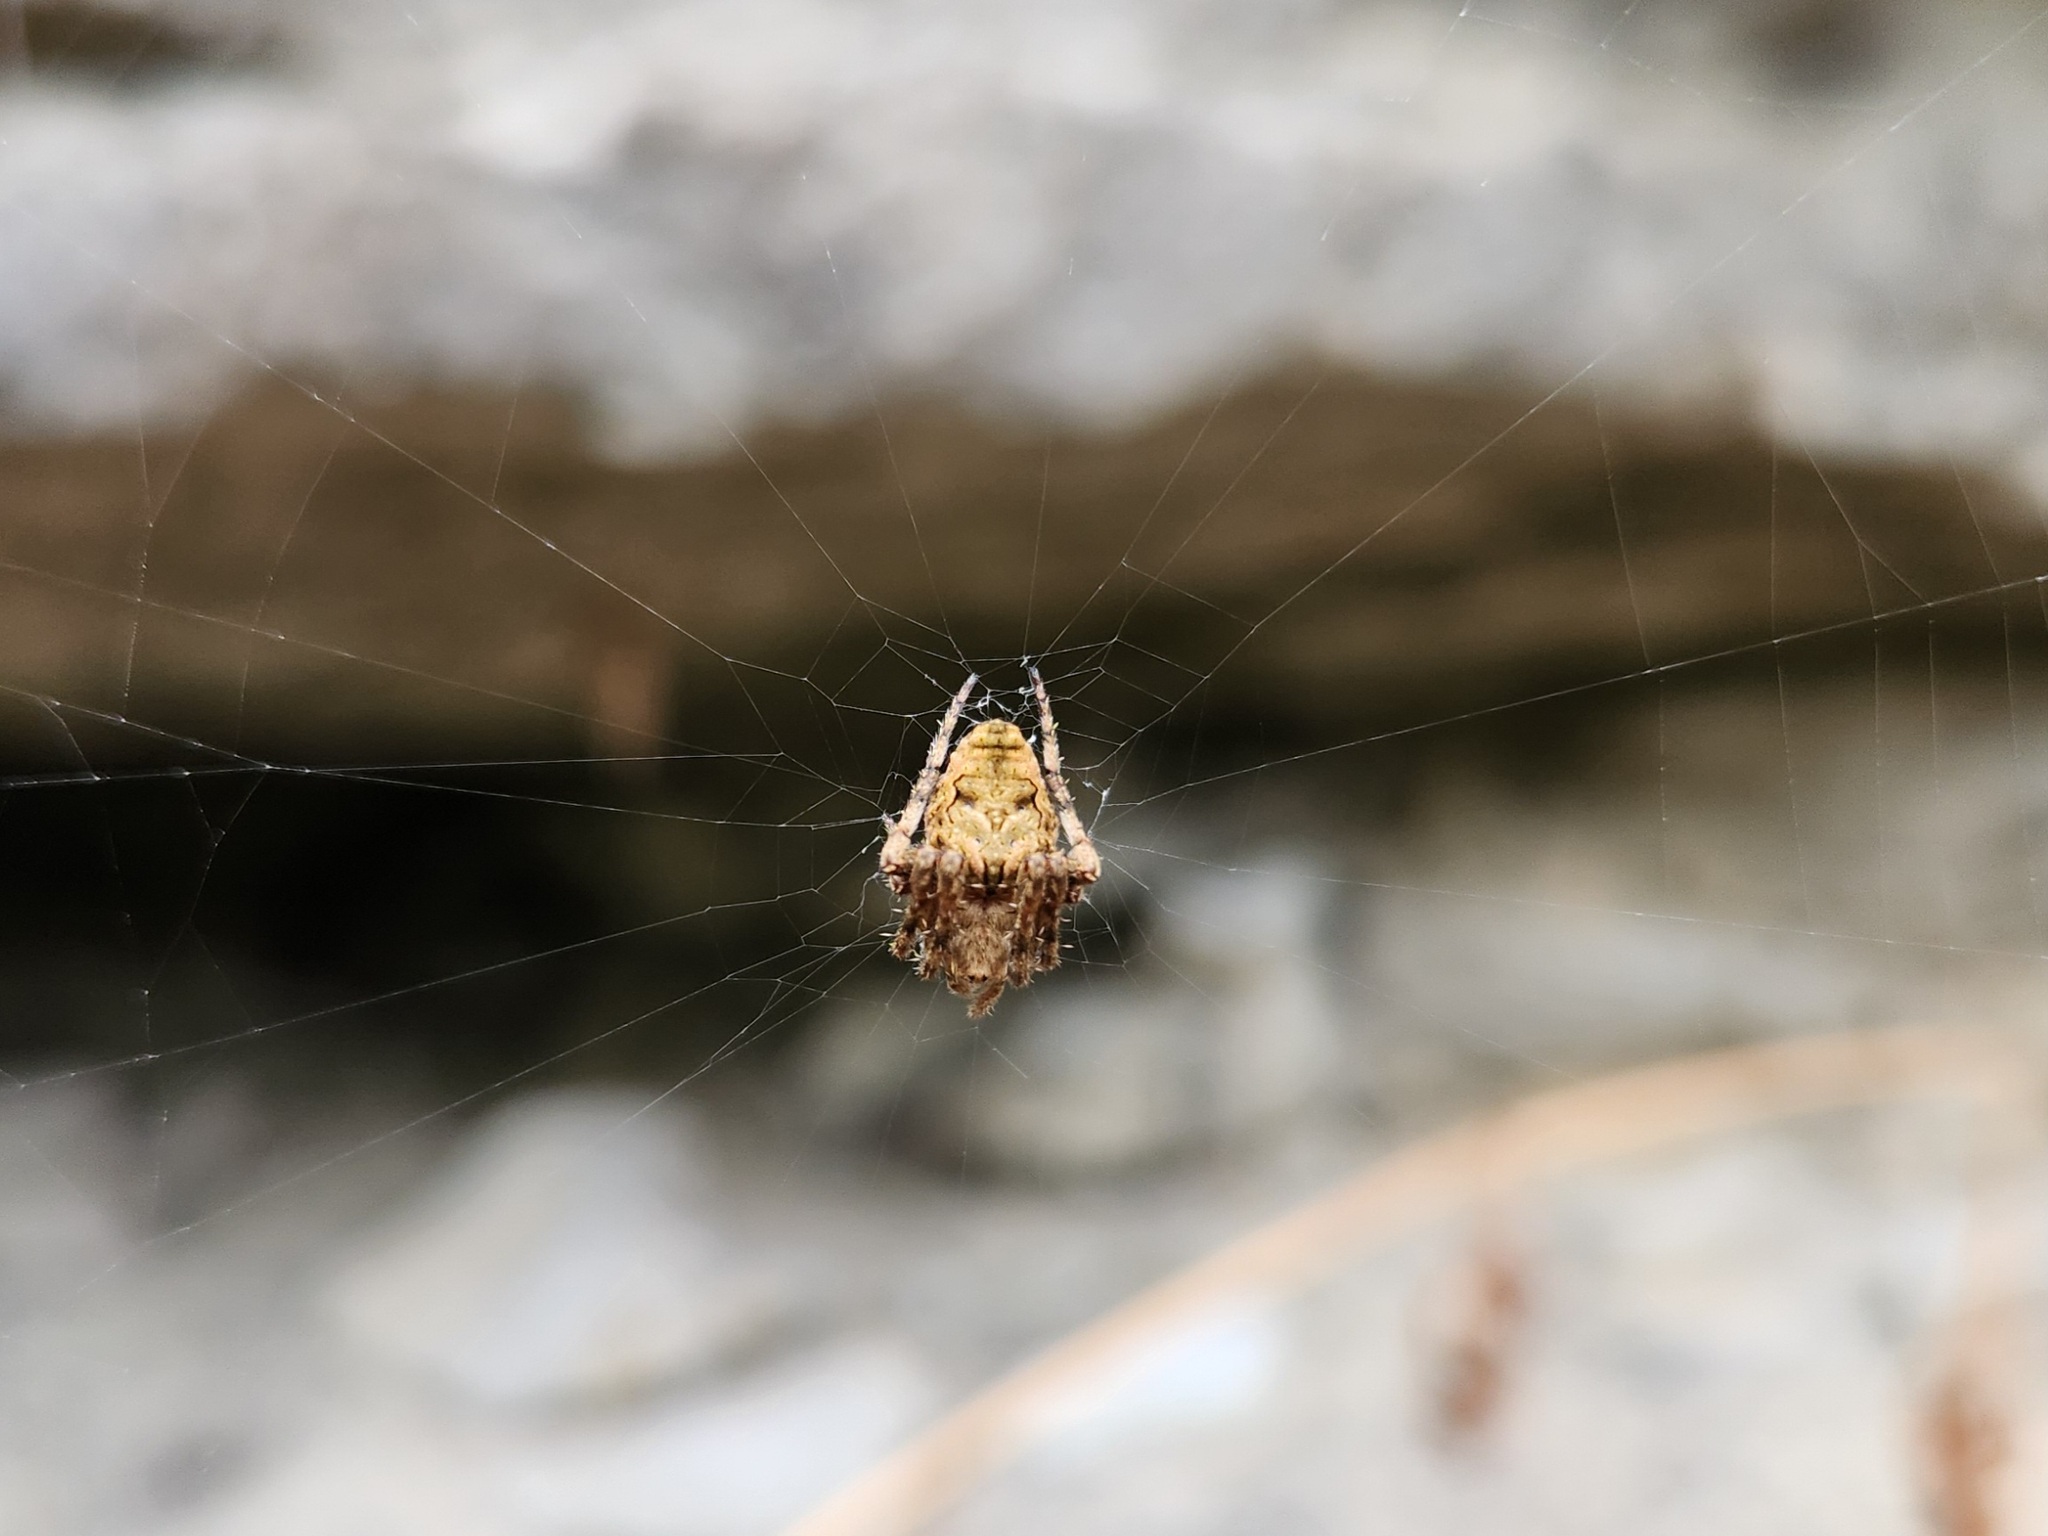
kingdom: Animalia
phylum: Arthropoda
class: Arachnida
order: Araneae
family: Araneidae
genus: Eustala
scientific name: Eustala anastera
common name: Orb weavers
